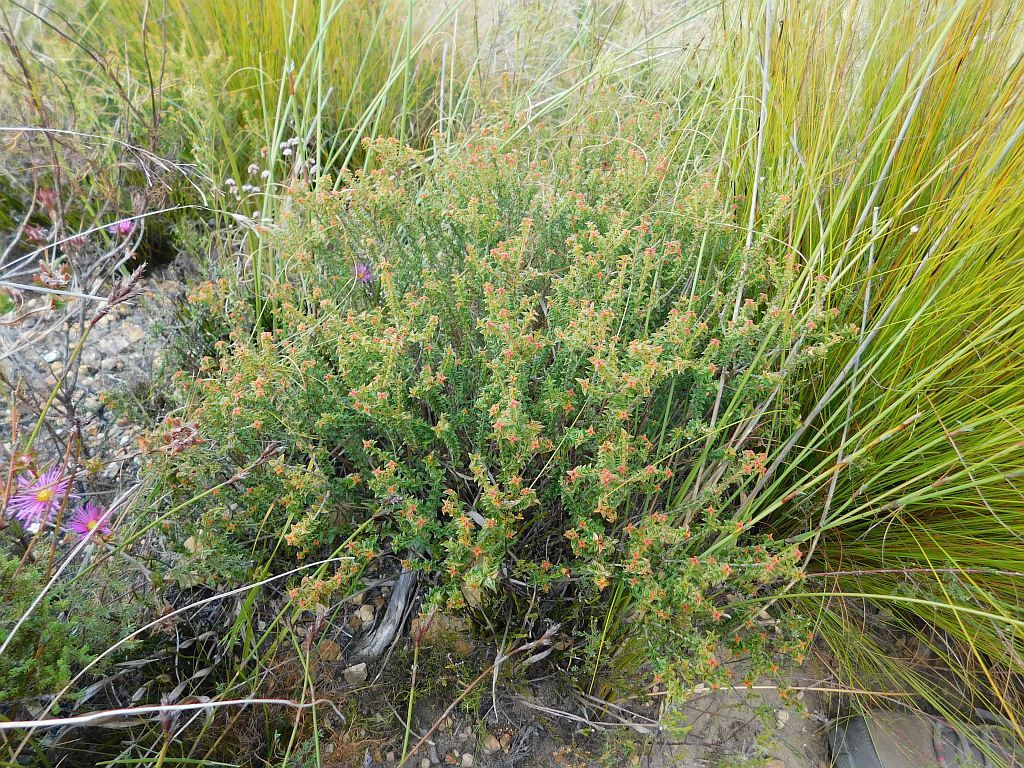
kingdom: Plantae
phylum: Tracheophyta
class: Magnoliopsida
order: Myrtales
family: Penaeaceae
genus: Penaea
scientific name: Penaea mucronata
